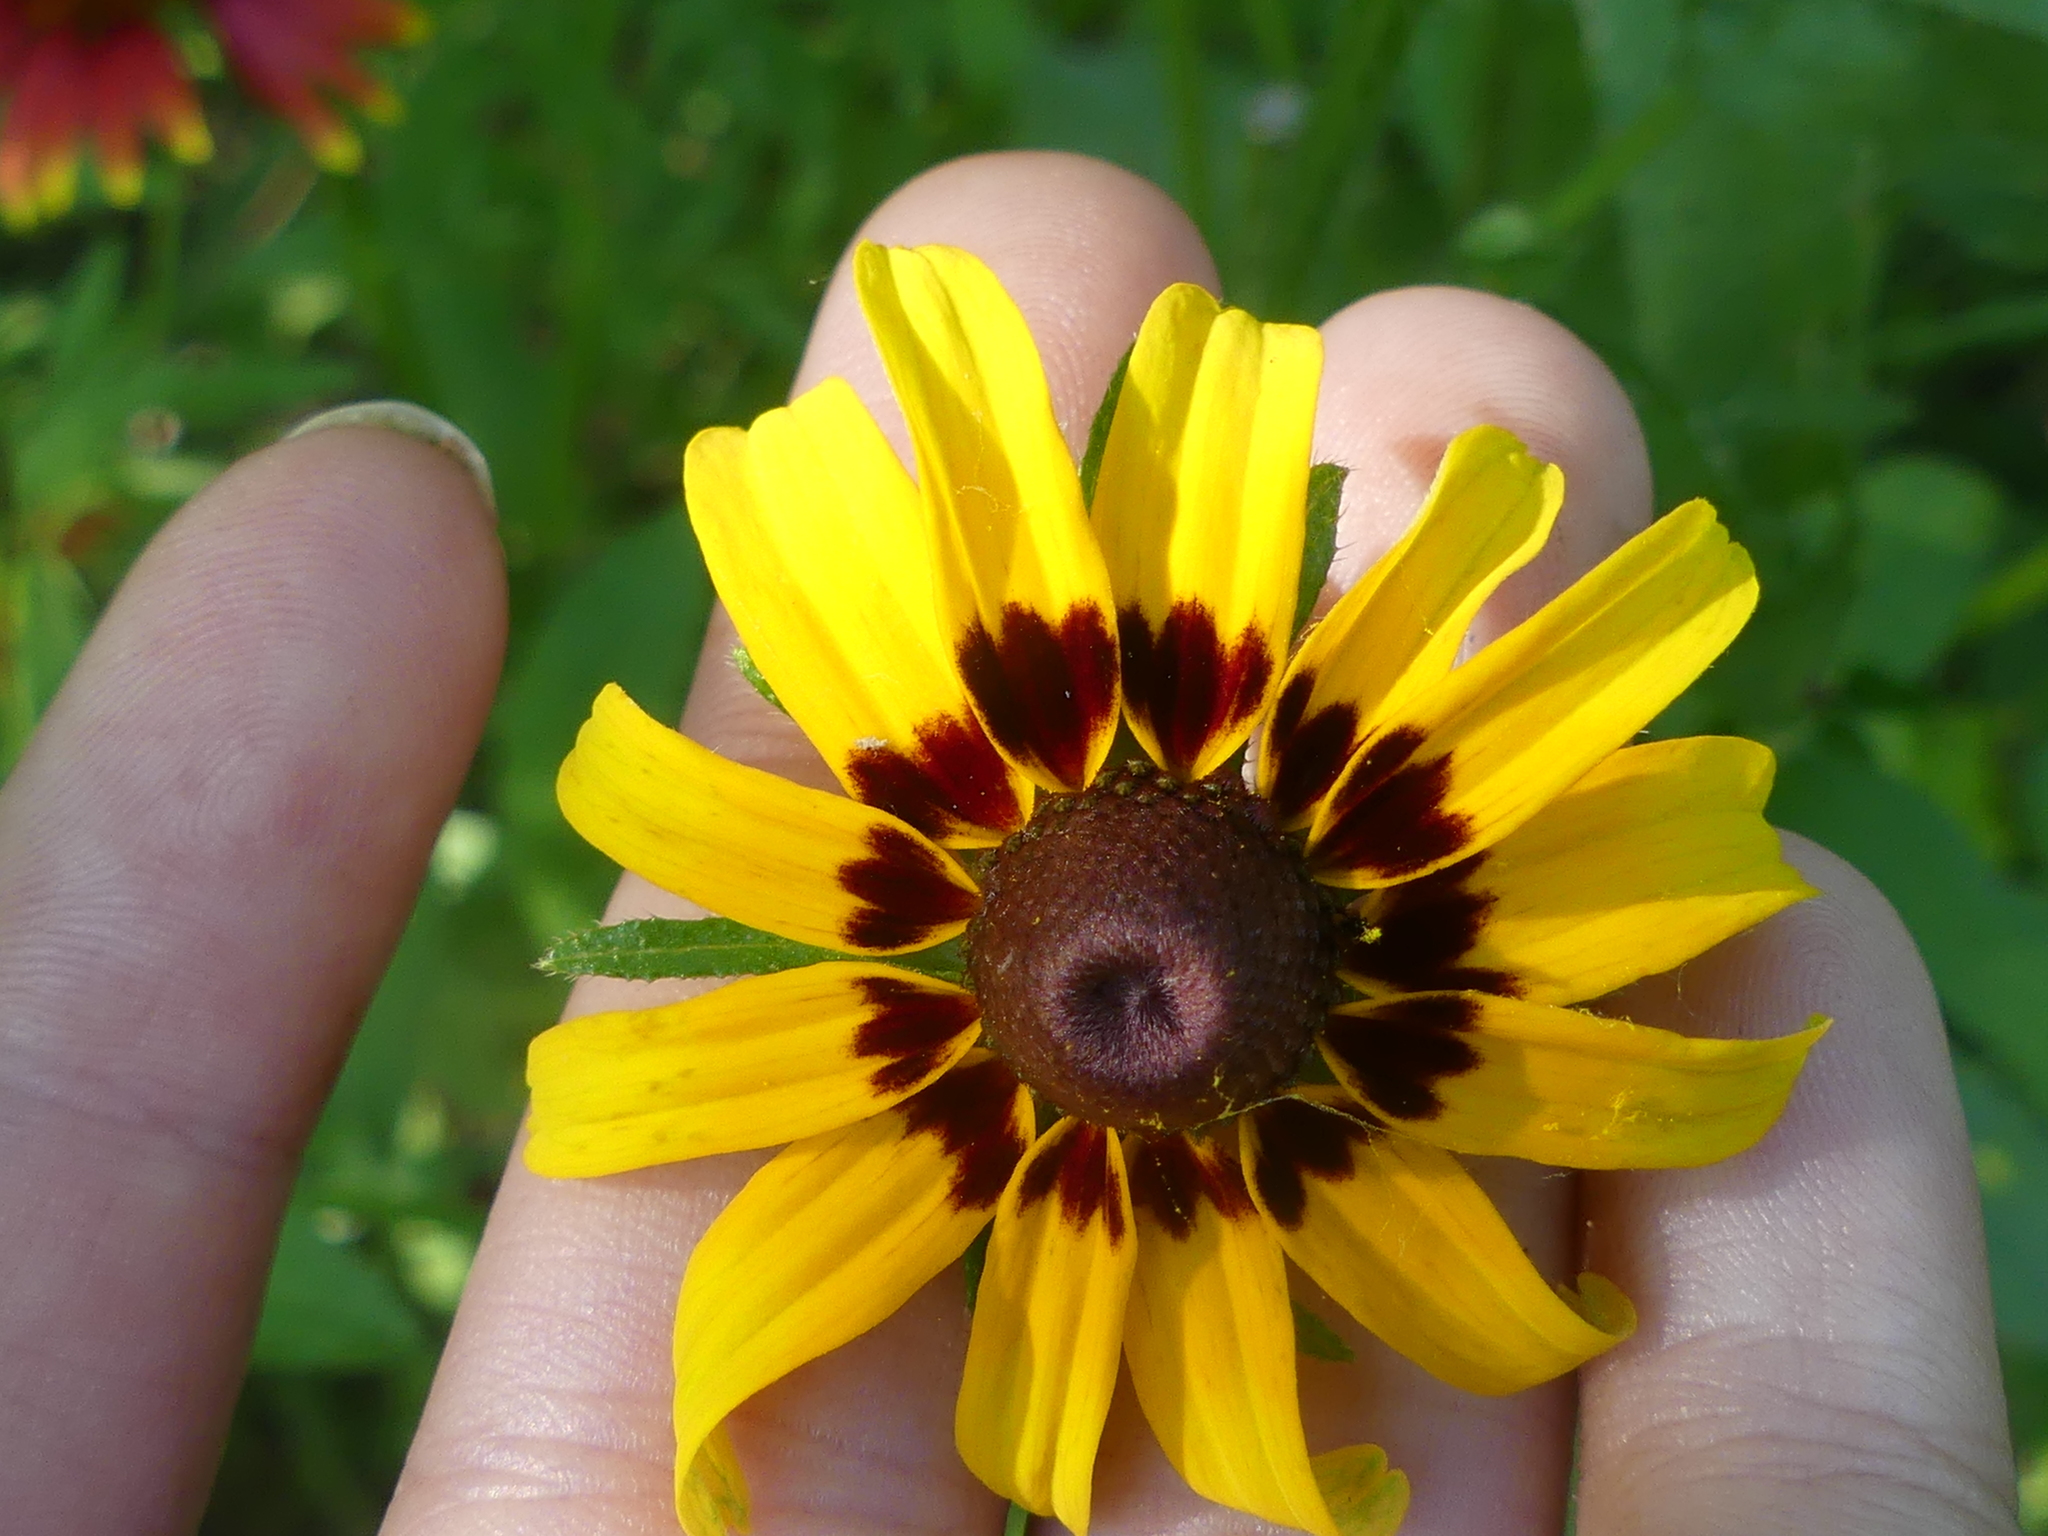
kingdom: Plantae
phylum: Tracheophyta
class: Magnoliopsida
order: Asterales
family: Asteraceae
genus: Rudbeckia
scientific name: Rudbeckia hirta
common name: Black-eyed-susan
